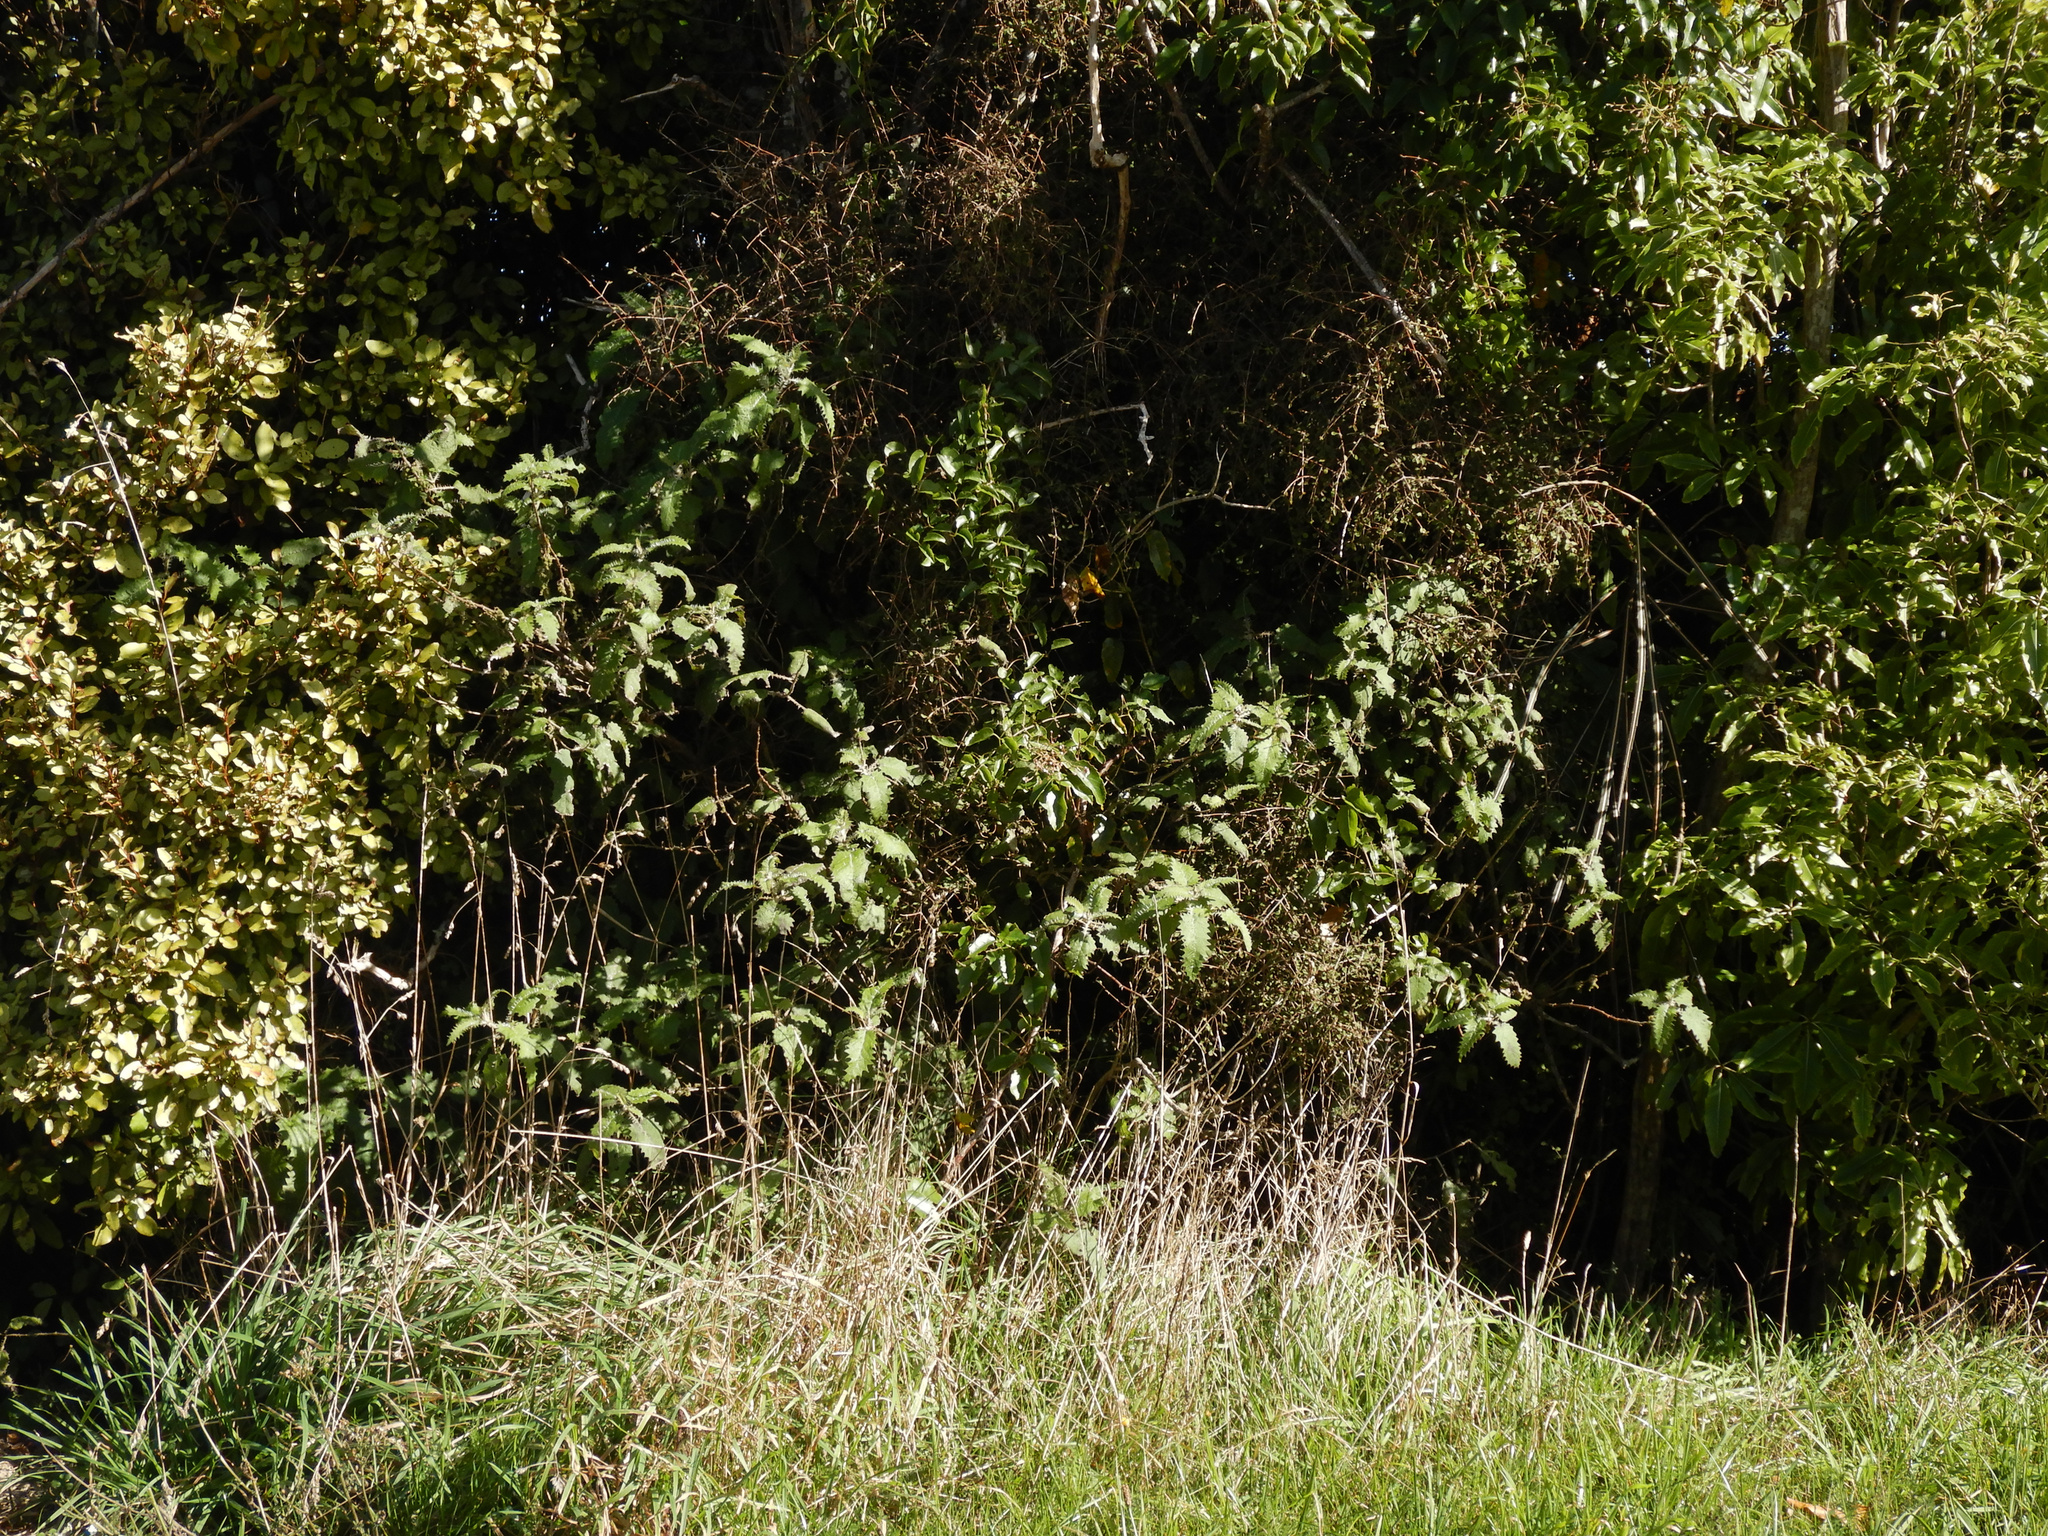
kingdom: Plantae
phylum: Tracheophyta
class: Magnoliopsida
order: Rosales
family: Urticaceae
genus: Urtica
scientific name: Urtica ferox
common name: Tree nettle
